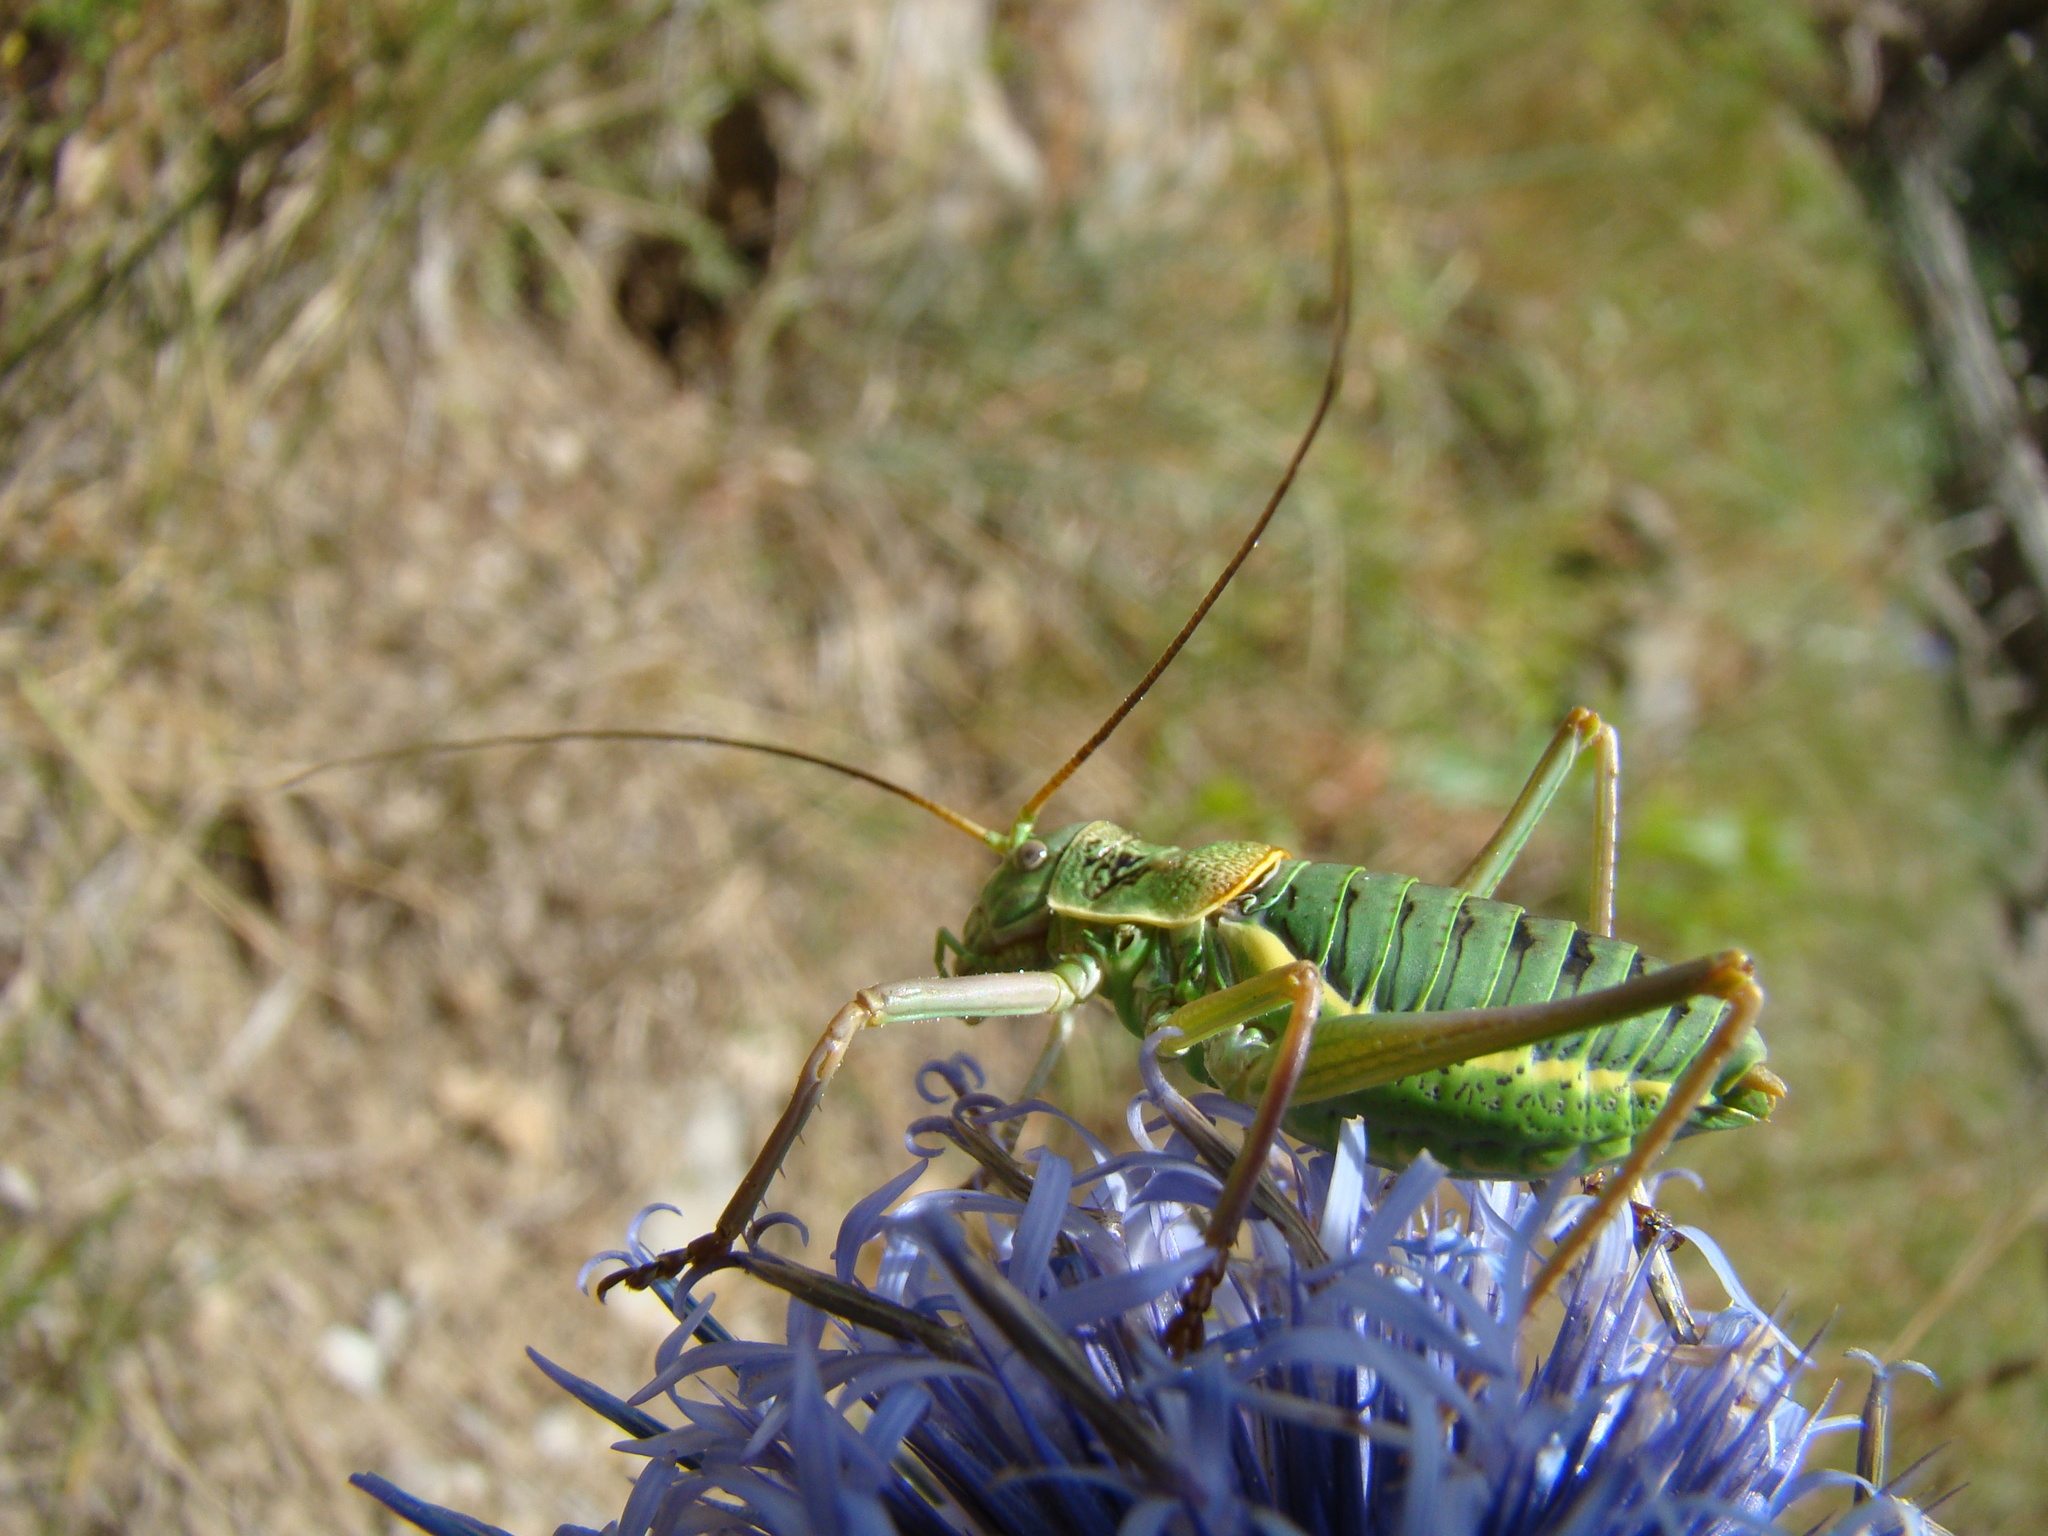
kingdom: Animalia
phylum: Arthropoda
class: Insecta
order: Orthoptera
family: Tettigoniidae
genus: Ephippiger
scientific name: Ephippiger diurnus
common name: Western saddle bush-cricket
